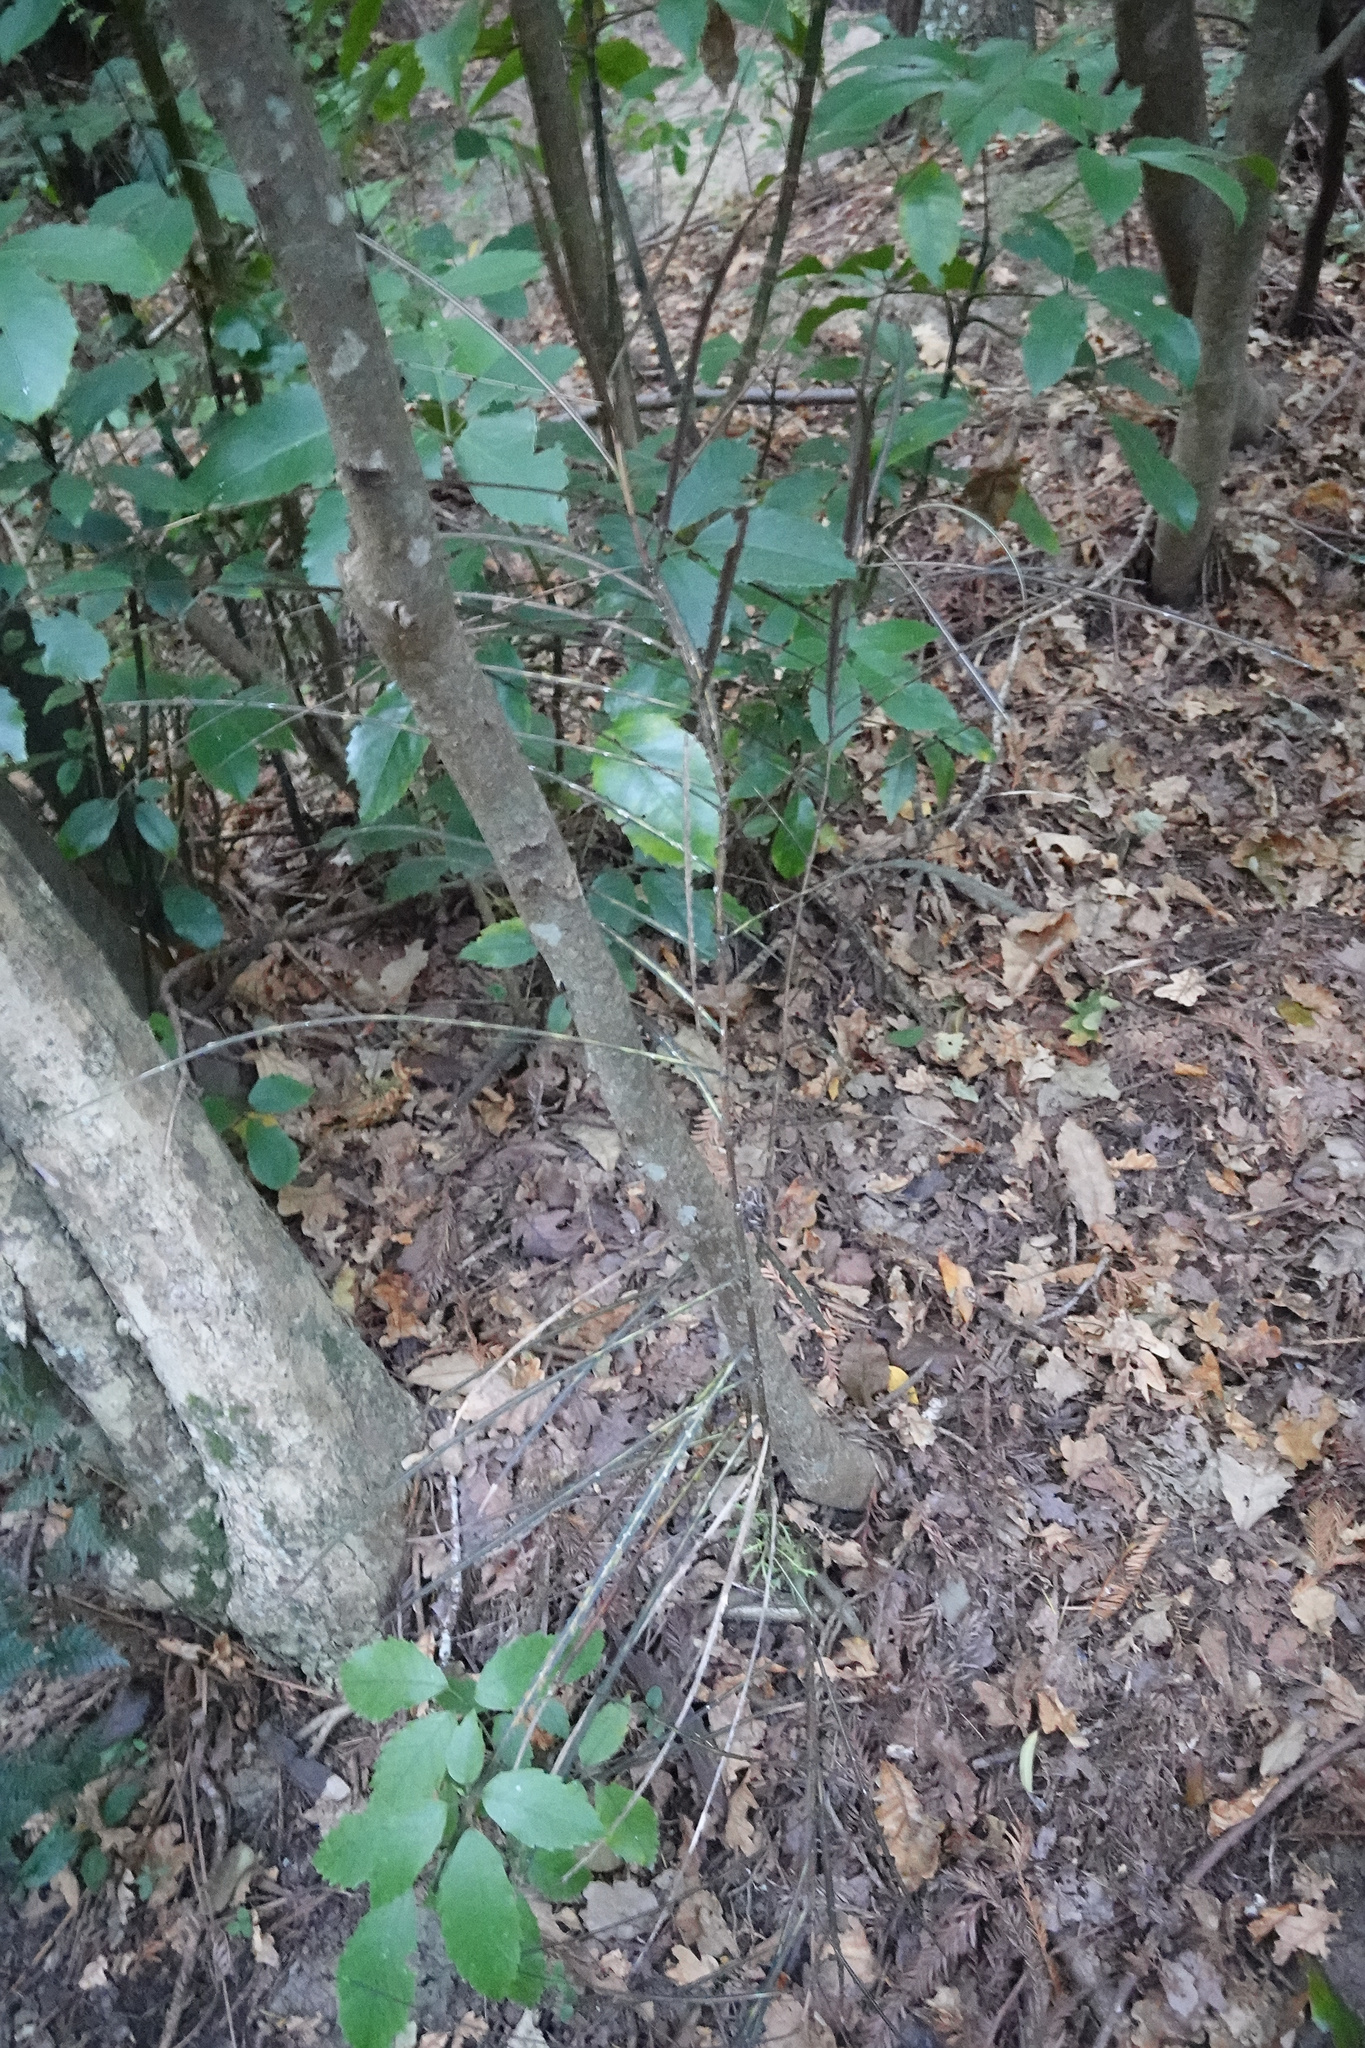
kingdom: Plantae
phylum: Tracheophyta
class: Magnoliopsida
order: Apiales
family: Araliaceae
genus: Pseudopanax
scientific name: Pseudopanax crassifolius
